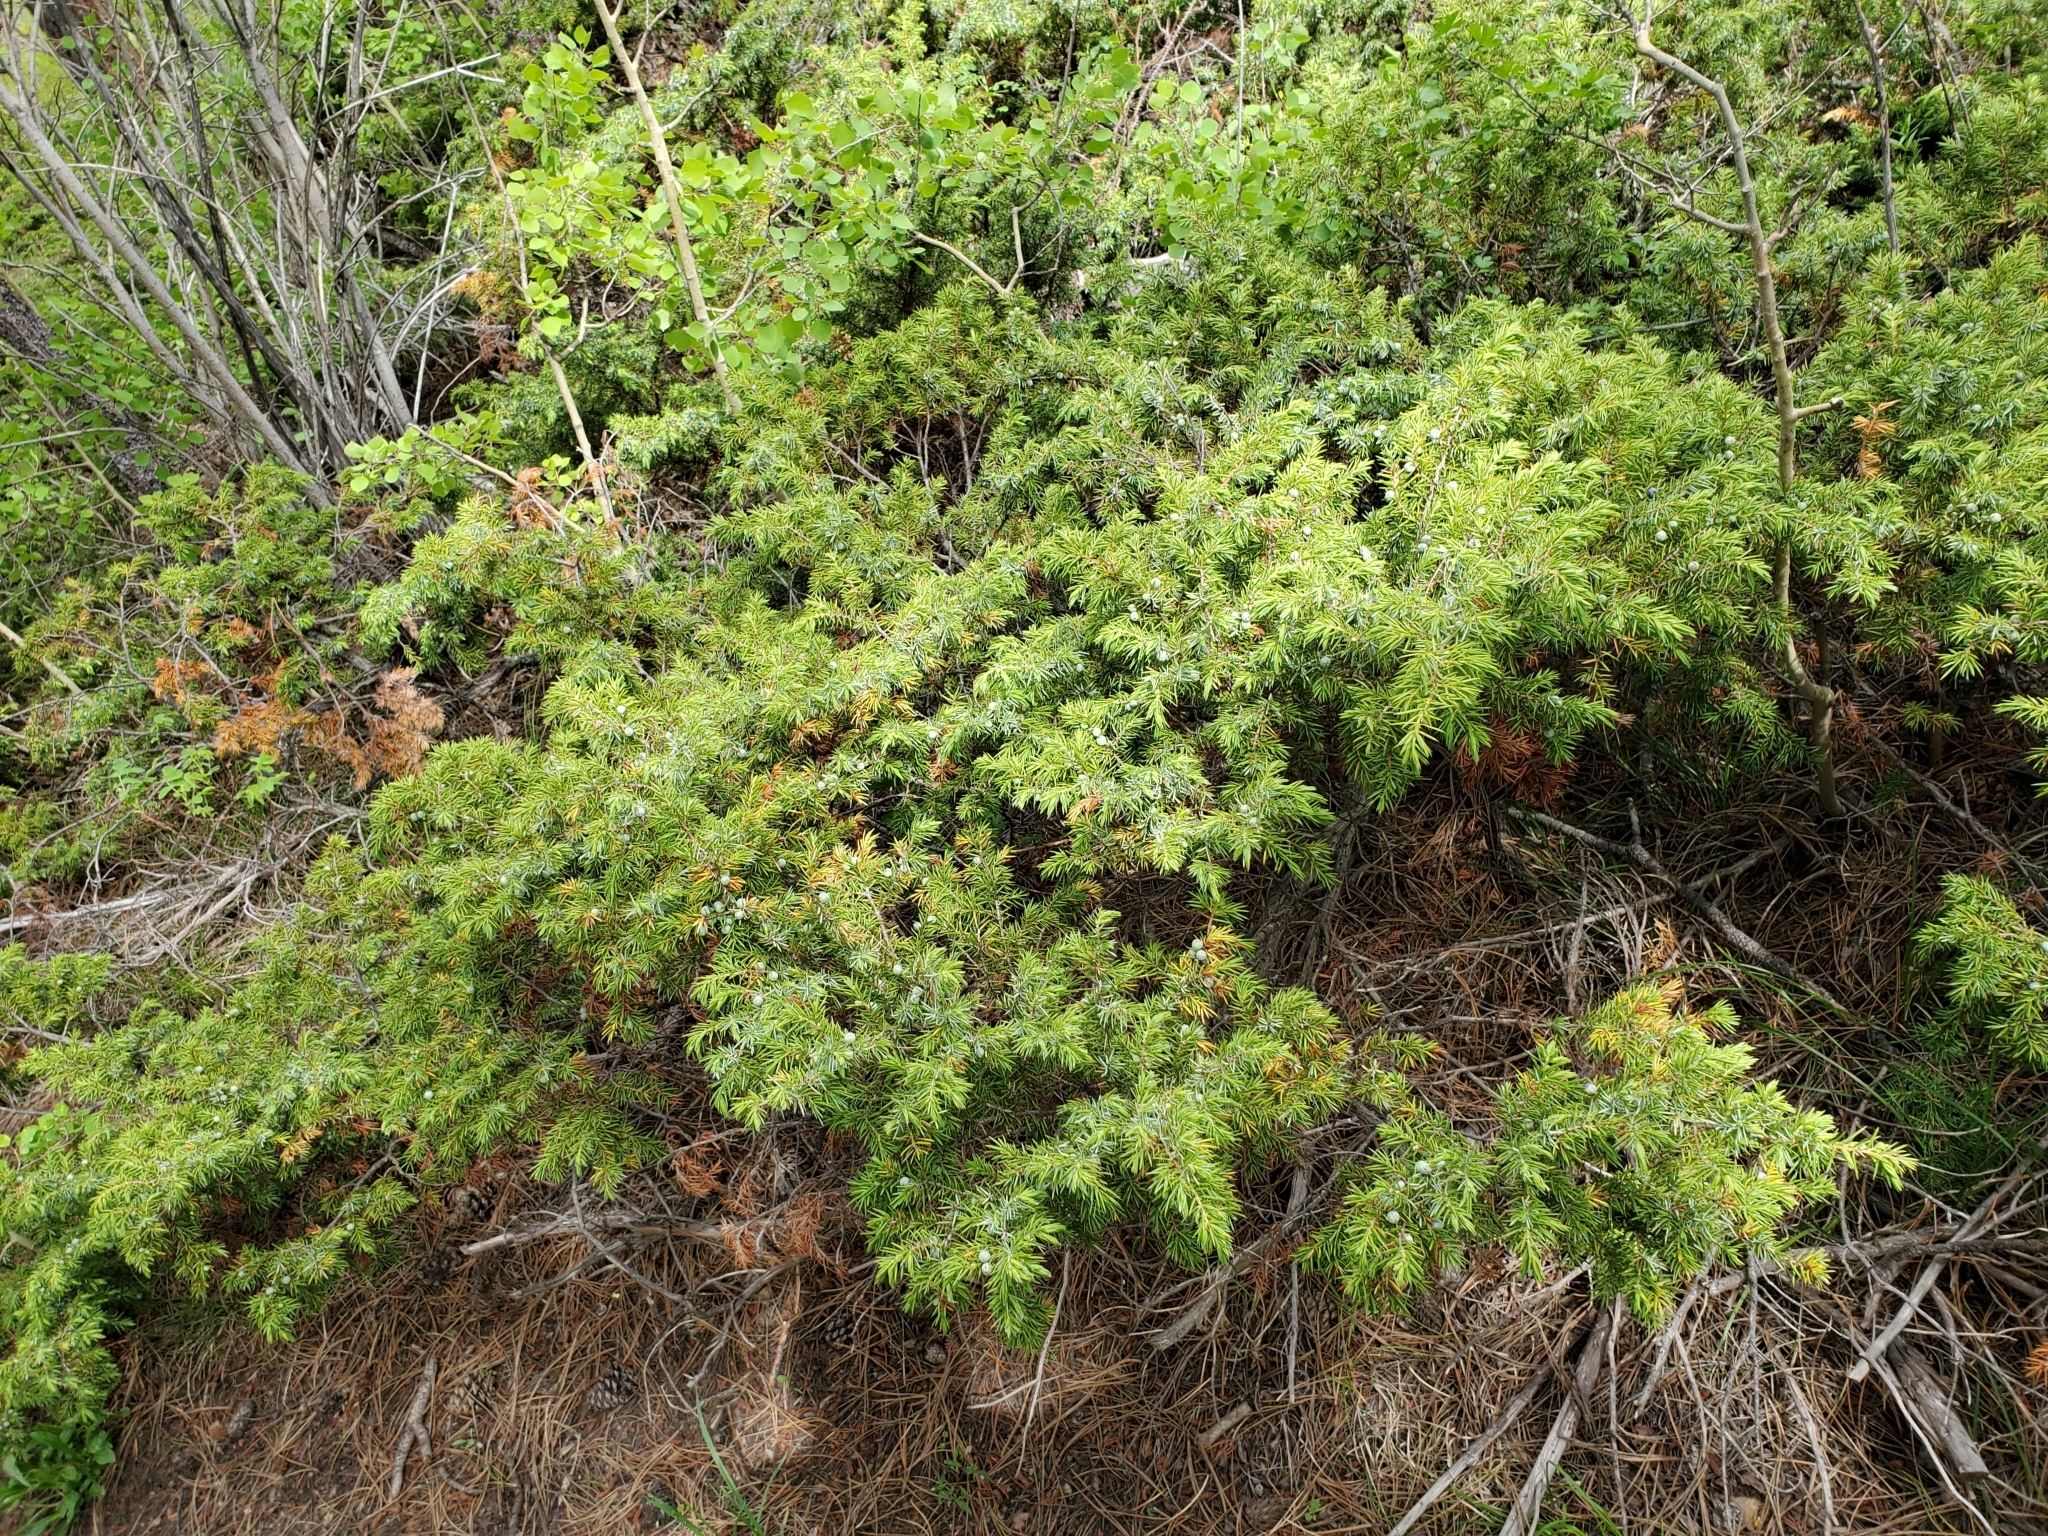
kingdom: Plantae
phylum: Tracheophyta
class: Pinopsida
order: Pinales
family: Cupressaceae
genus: Juniperus
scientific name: Juniperus communis
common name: Common juniper
